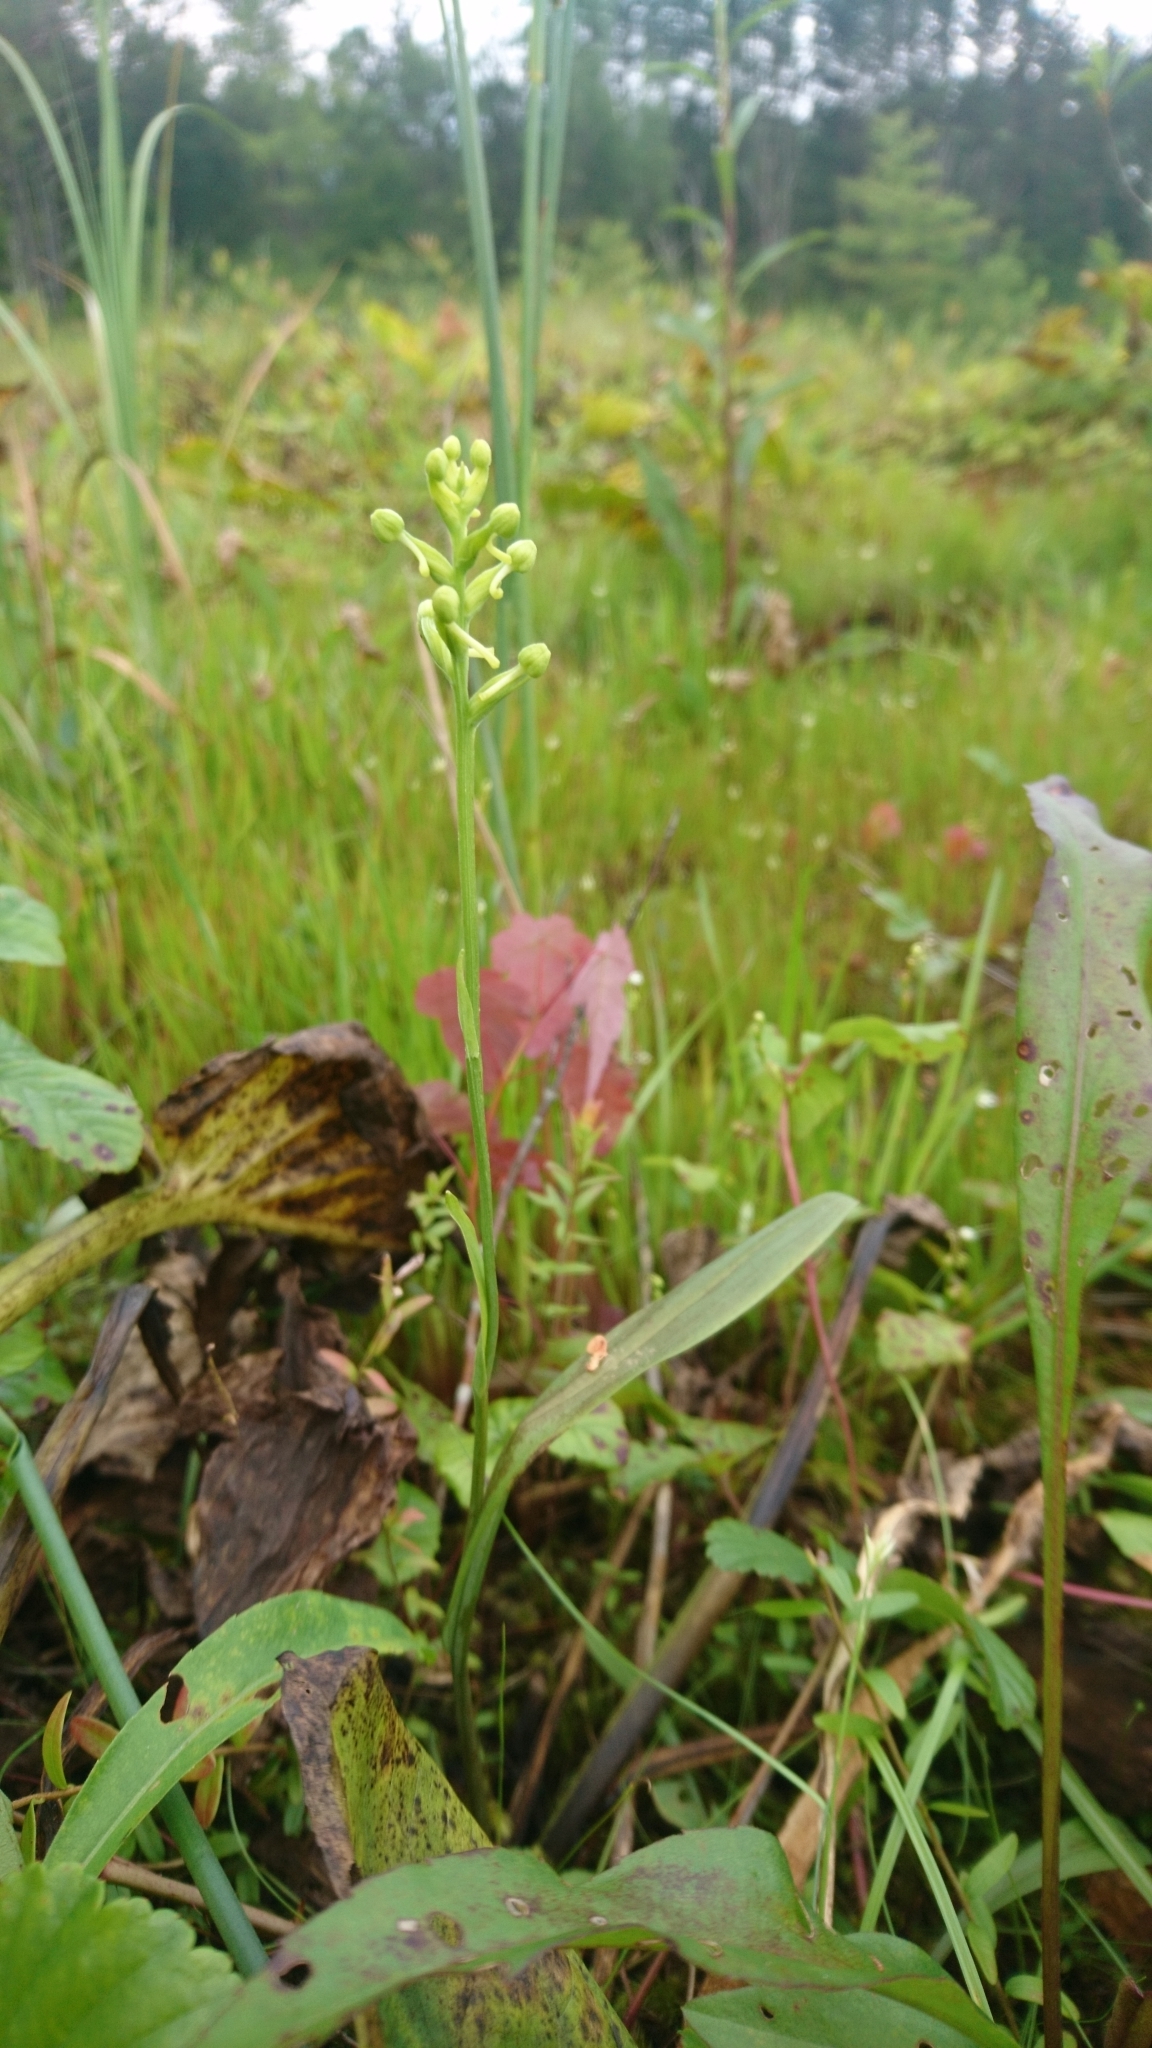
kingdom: Plantae
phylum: Tracheophyta
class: Liliopsida
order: Asparagales
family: Orchidaceae
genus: Platanthera
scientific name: Platanthera clavellata
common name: Club-spur orchid
